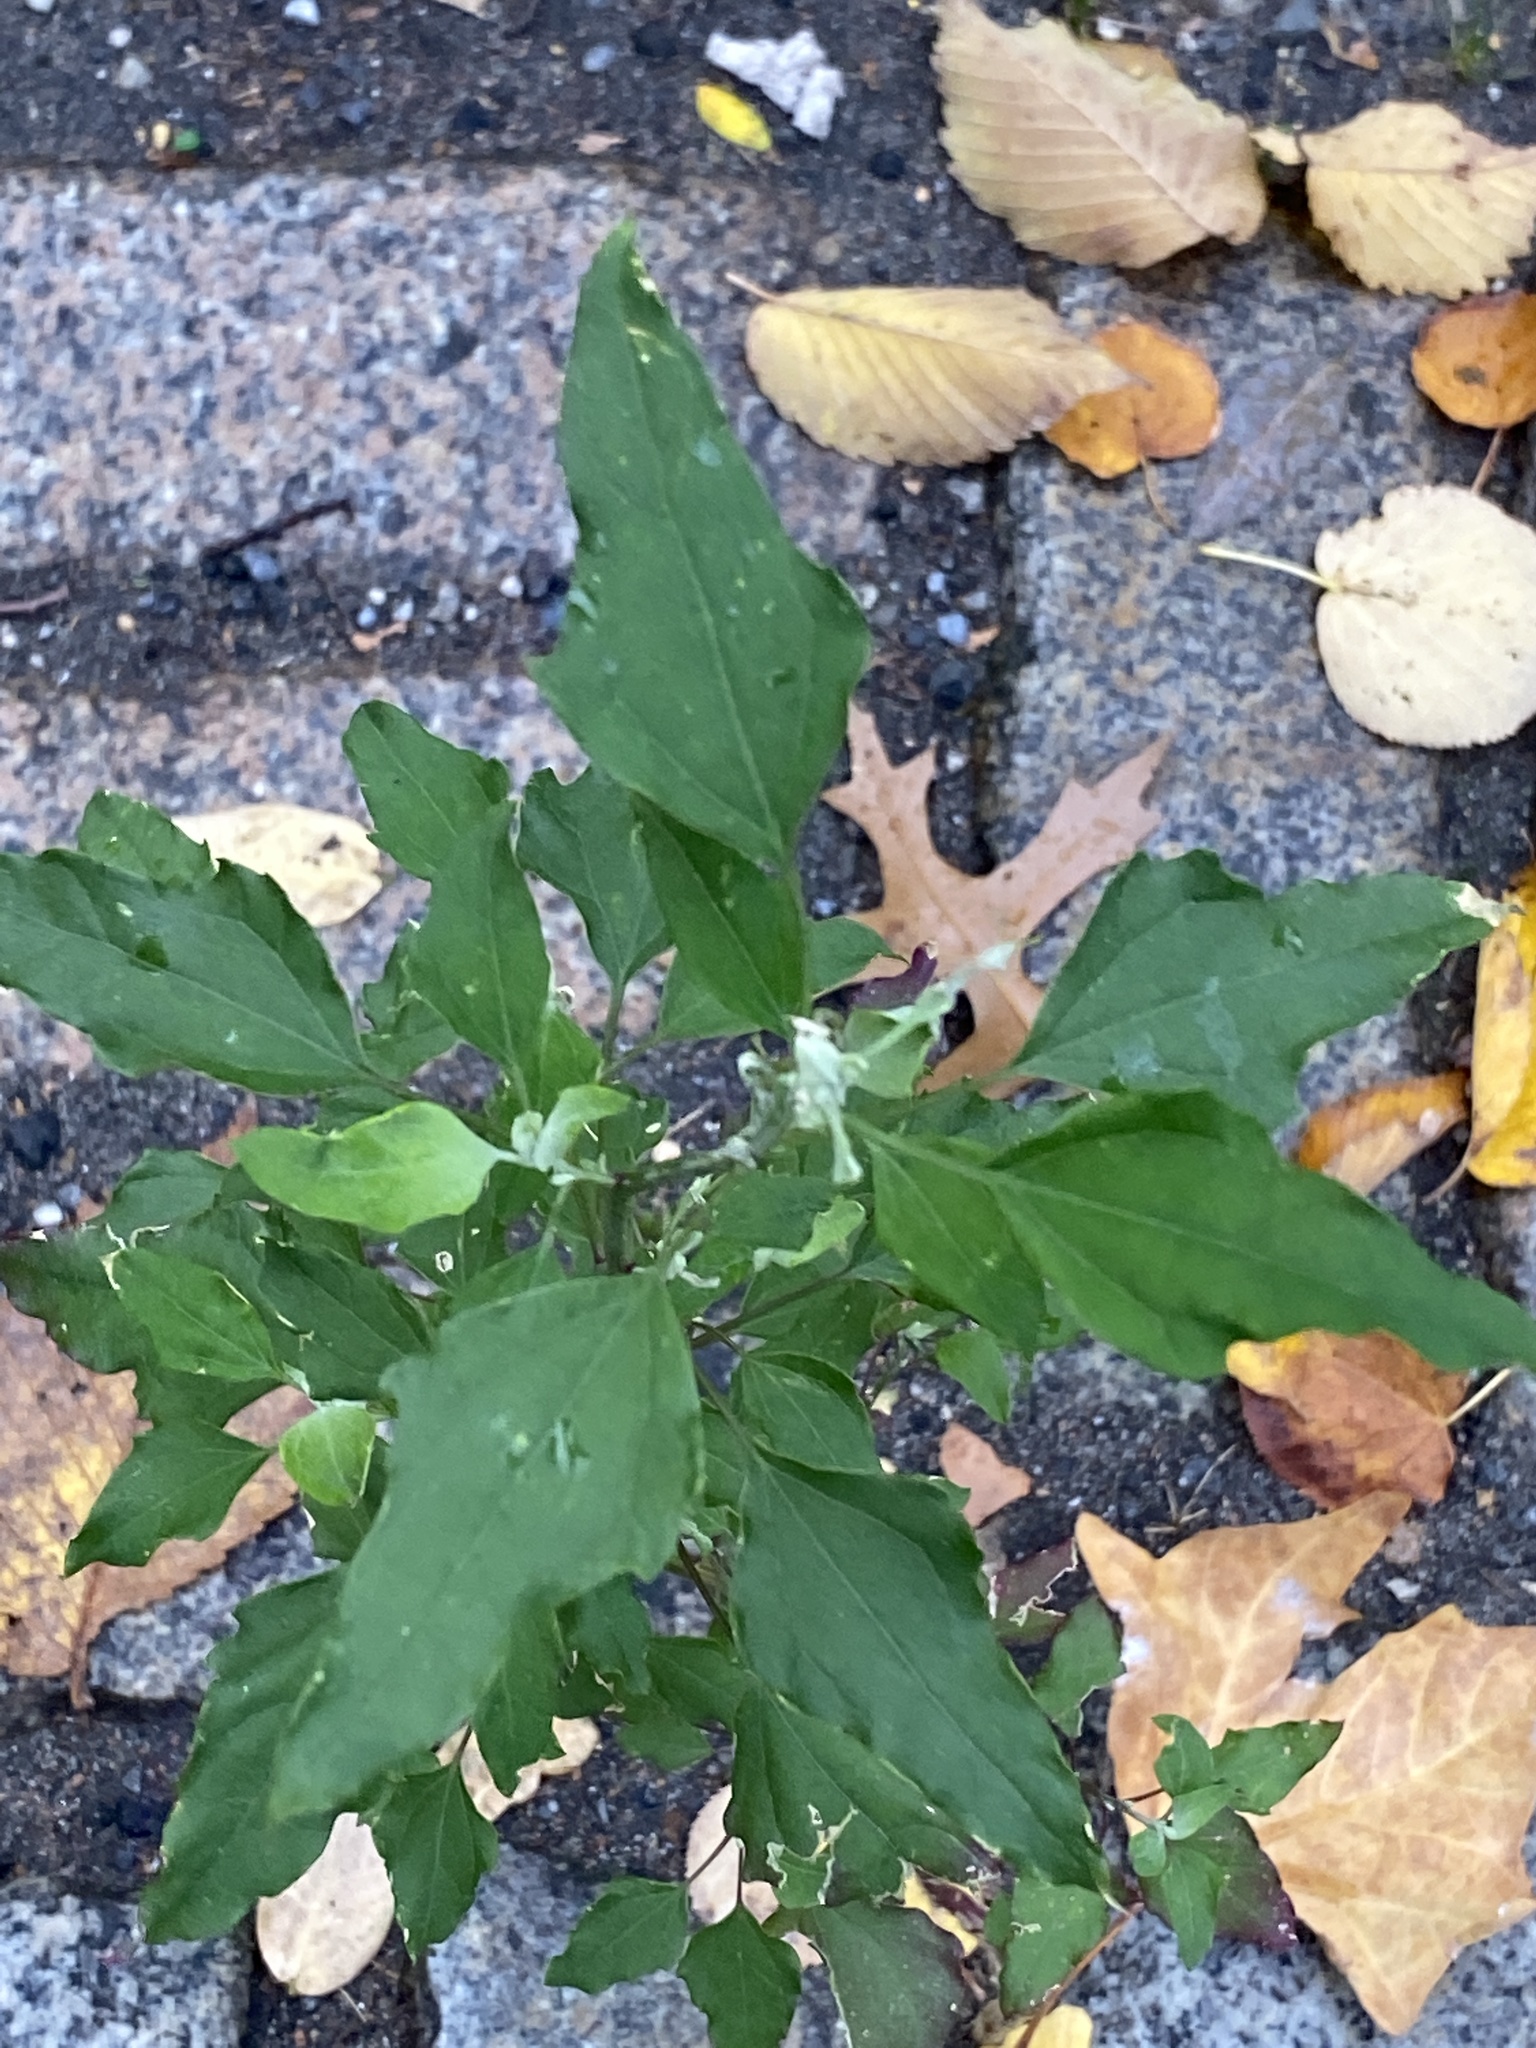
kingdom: Plantae
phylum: Tracheophyta
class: Magnoliopsida
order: Caryophyllales
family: Amaranthaceae
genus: Chenopodium
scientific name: Chenopodium album
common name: Fat-hen
